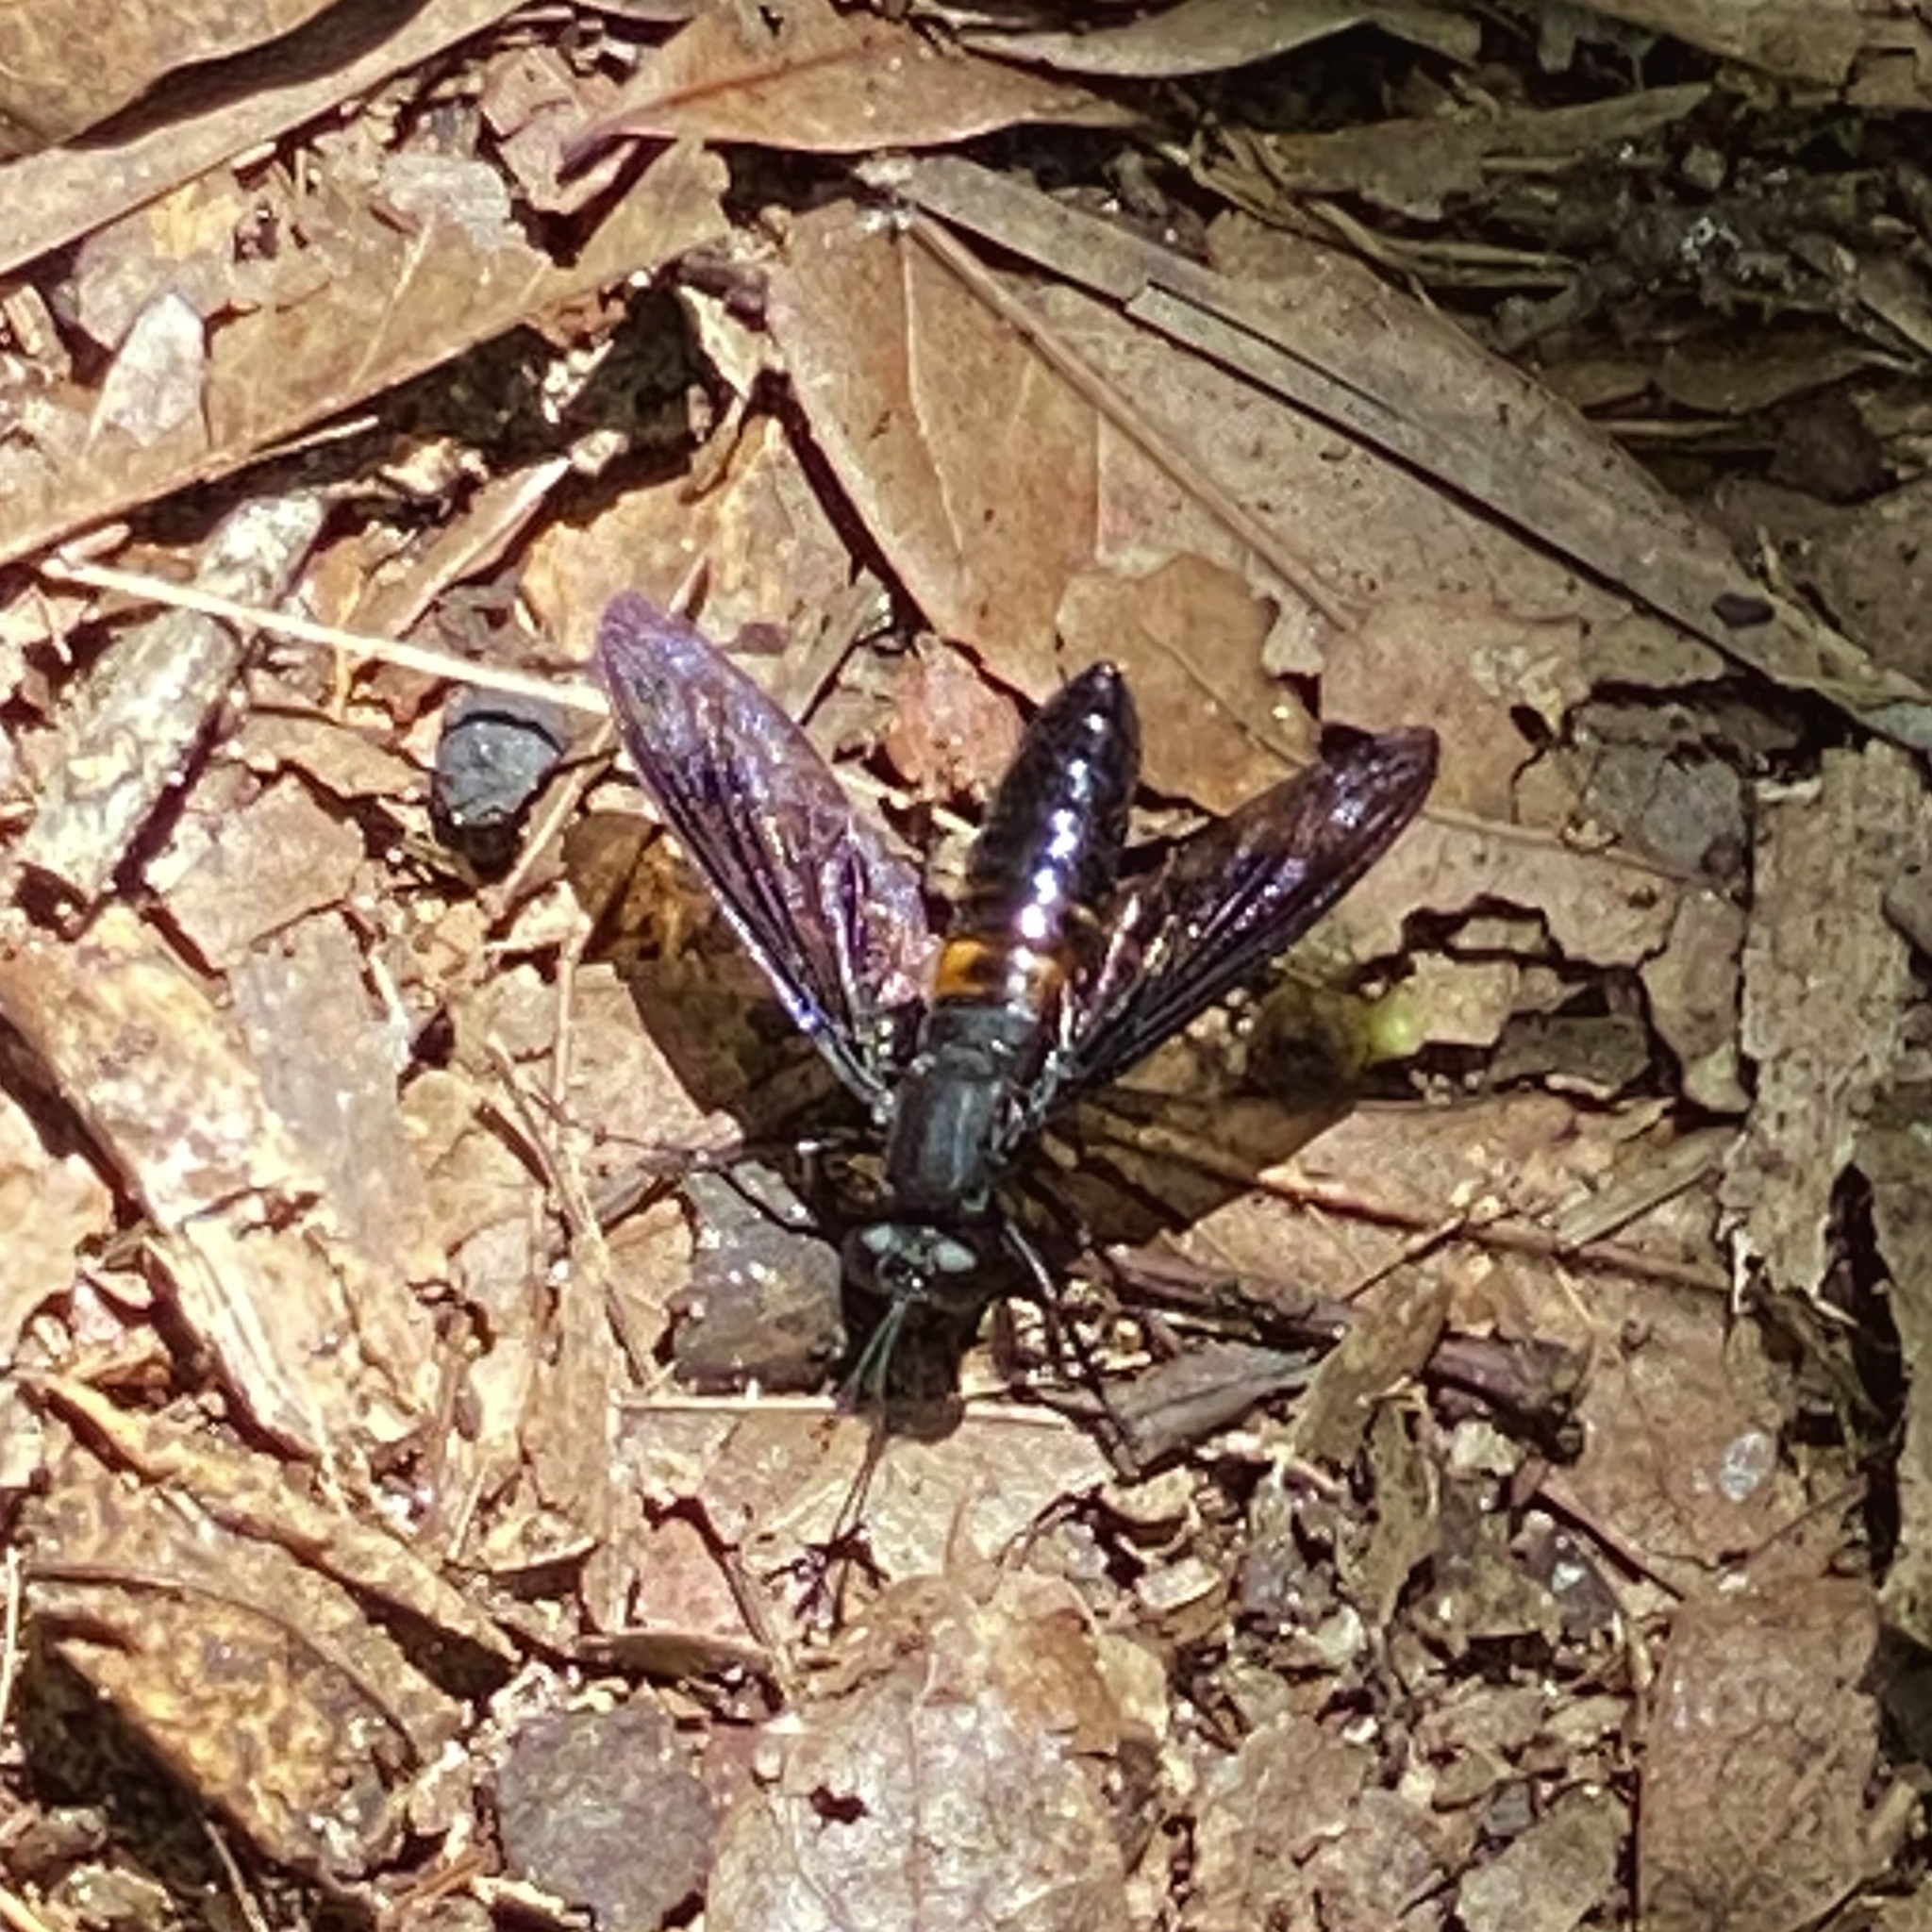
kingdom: Animalia
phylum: Arthropoda
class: Insecta
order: Diptera
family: Mydidae
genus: Mydas
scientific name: Mydas clavatus
